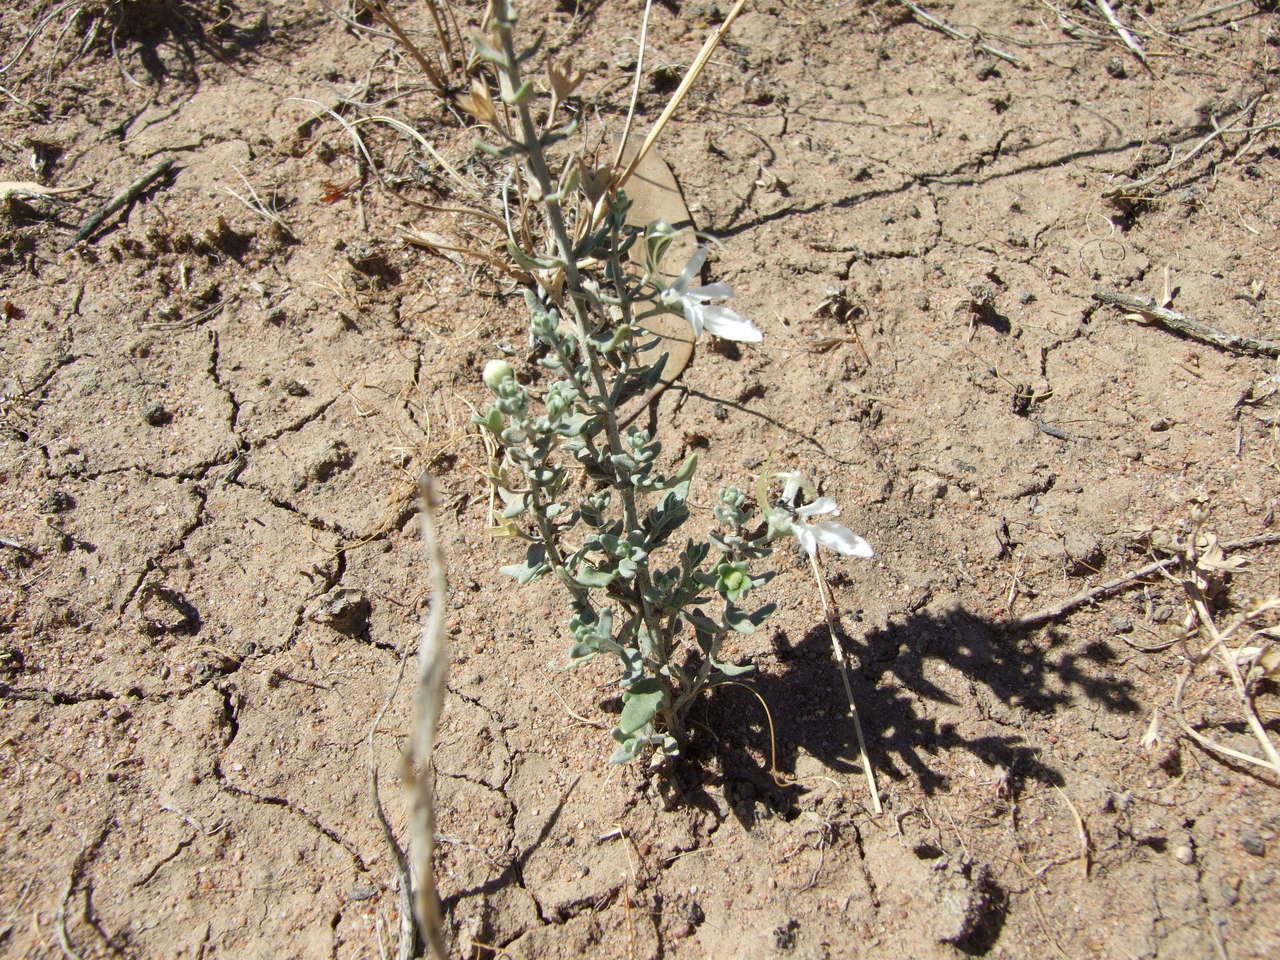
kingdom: Plantae
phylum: Tracheophyta
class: Magnoliopsida
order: Lamiales
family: Lamiaceae
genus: Teucrium
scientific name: Teucrium racemosum
